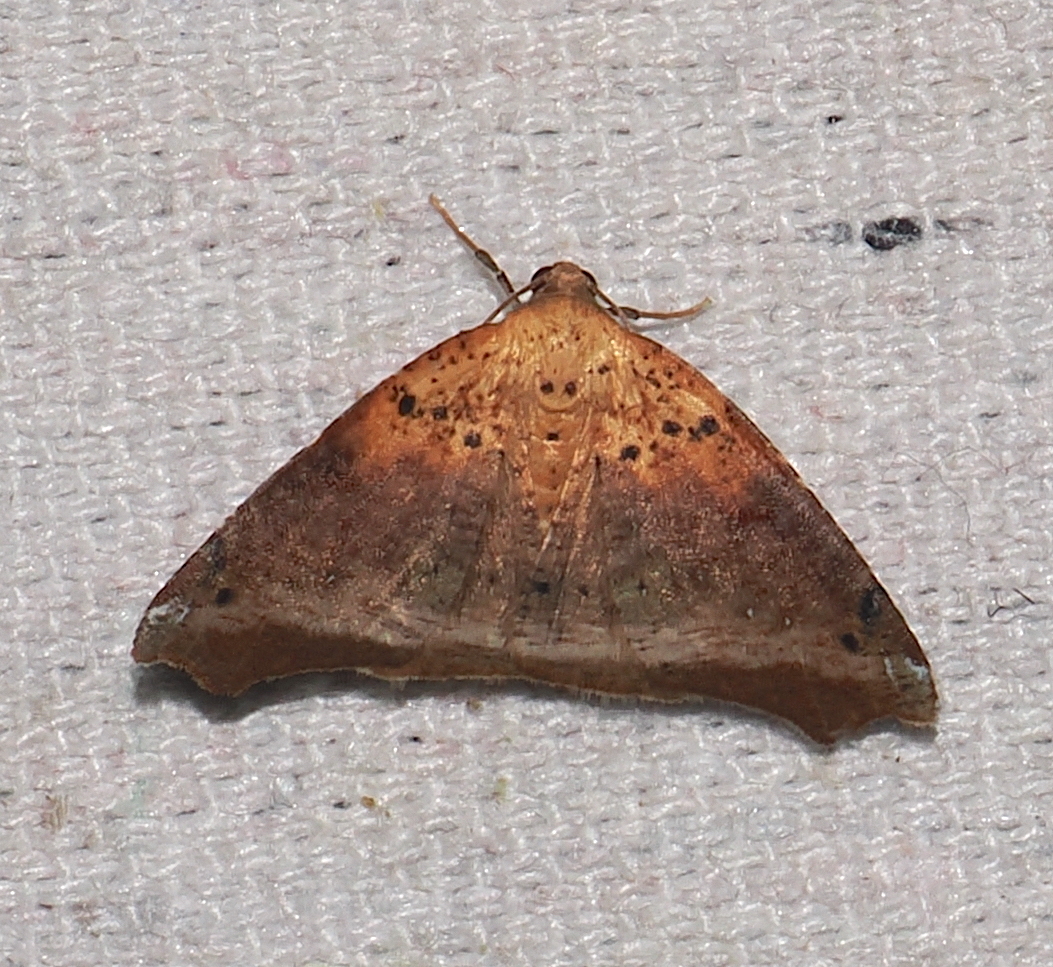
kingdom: Animalia
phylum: Arthropoda
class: Insecta
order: Lepidoptera
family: Geometridae
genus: Mychonia
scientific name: Mychonia graphica
